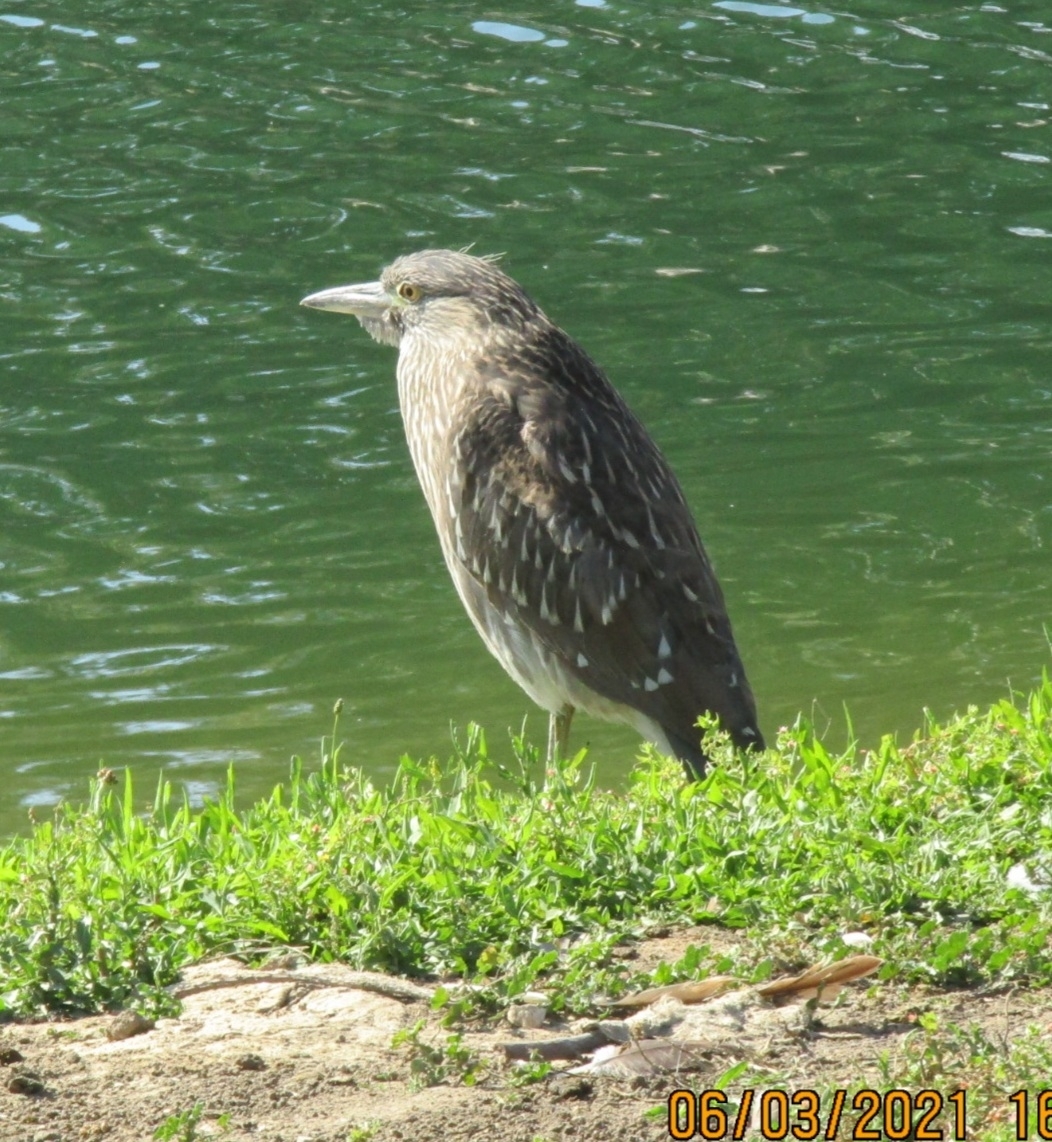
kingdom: Animalia
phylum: Chordata
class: Aves
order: Pelecaniformes
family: Ardeidae
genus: Nycticorax
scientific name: Nycticorax nycticorax
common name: Black-crowned night heron
